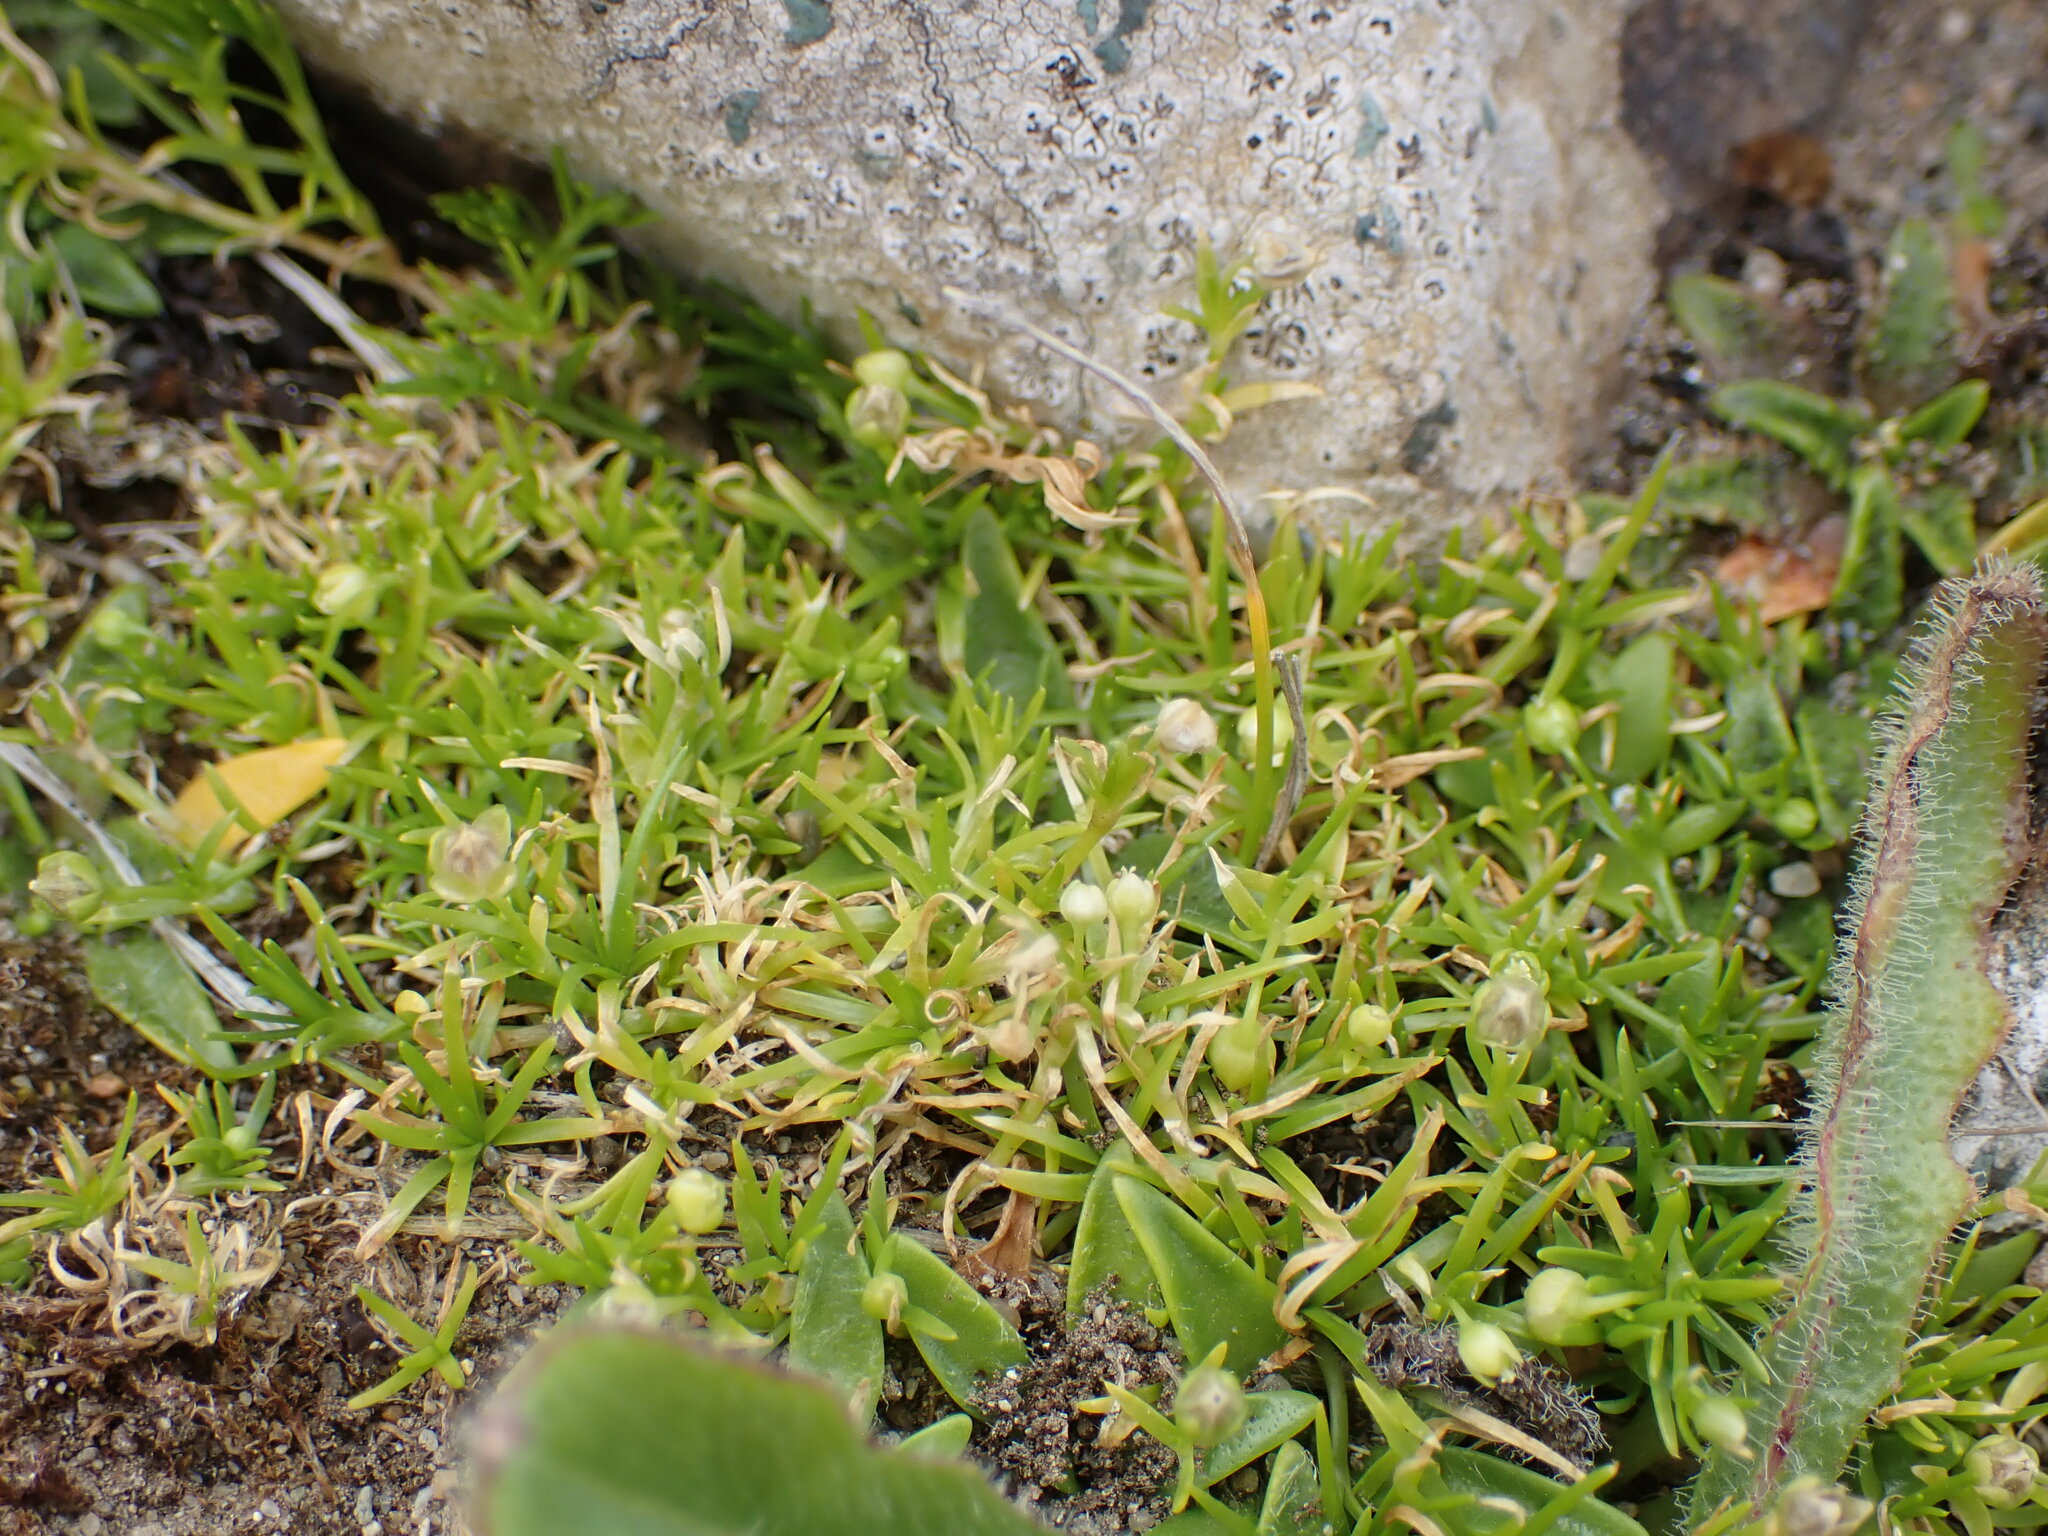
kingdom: Plantae
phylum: Tracheophyta
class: Magnoliopsida
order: Caryophyllales
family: Caryophyllaceae
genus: Sagina
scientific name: Sagina procumbens
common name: Procumbent pearlwort
